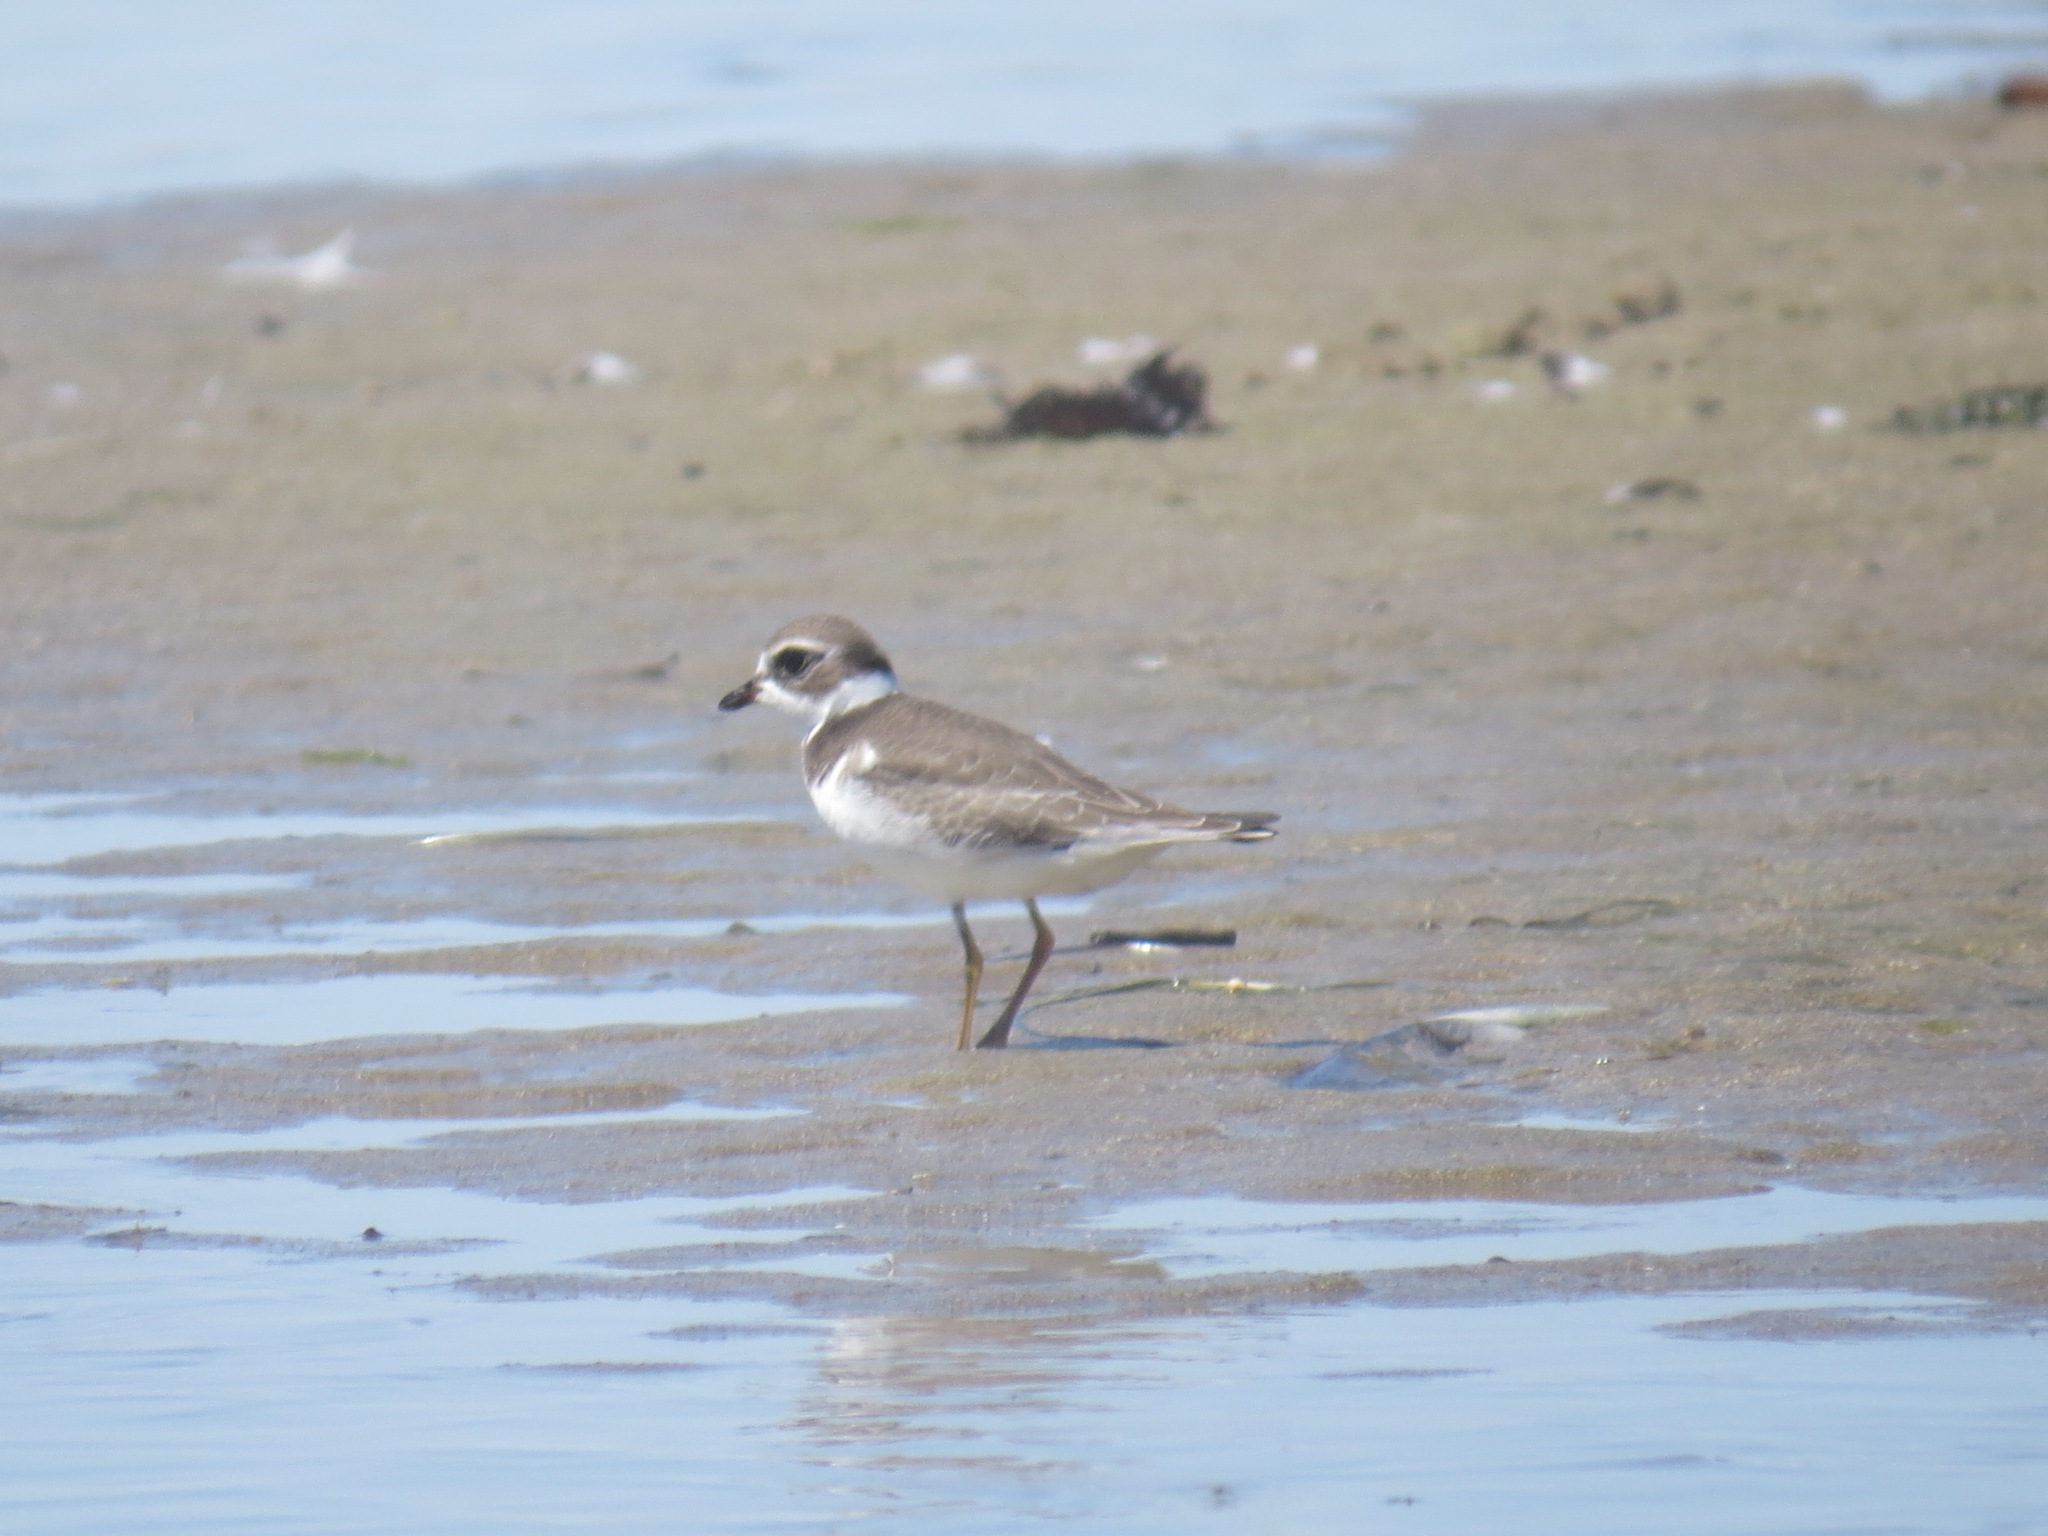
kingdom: Animalia
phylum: Chordata
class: Aves
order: Charadriiformes
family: Charadriidae
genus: Charadrius
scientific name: Charadrius semipalmatus
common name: Semipalmated plover
